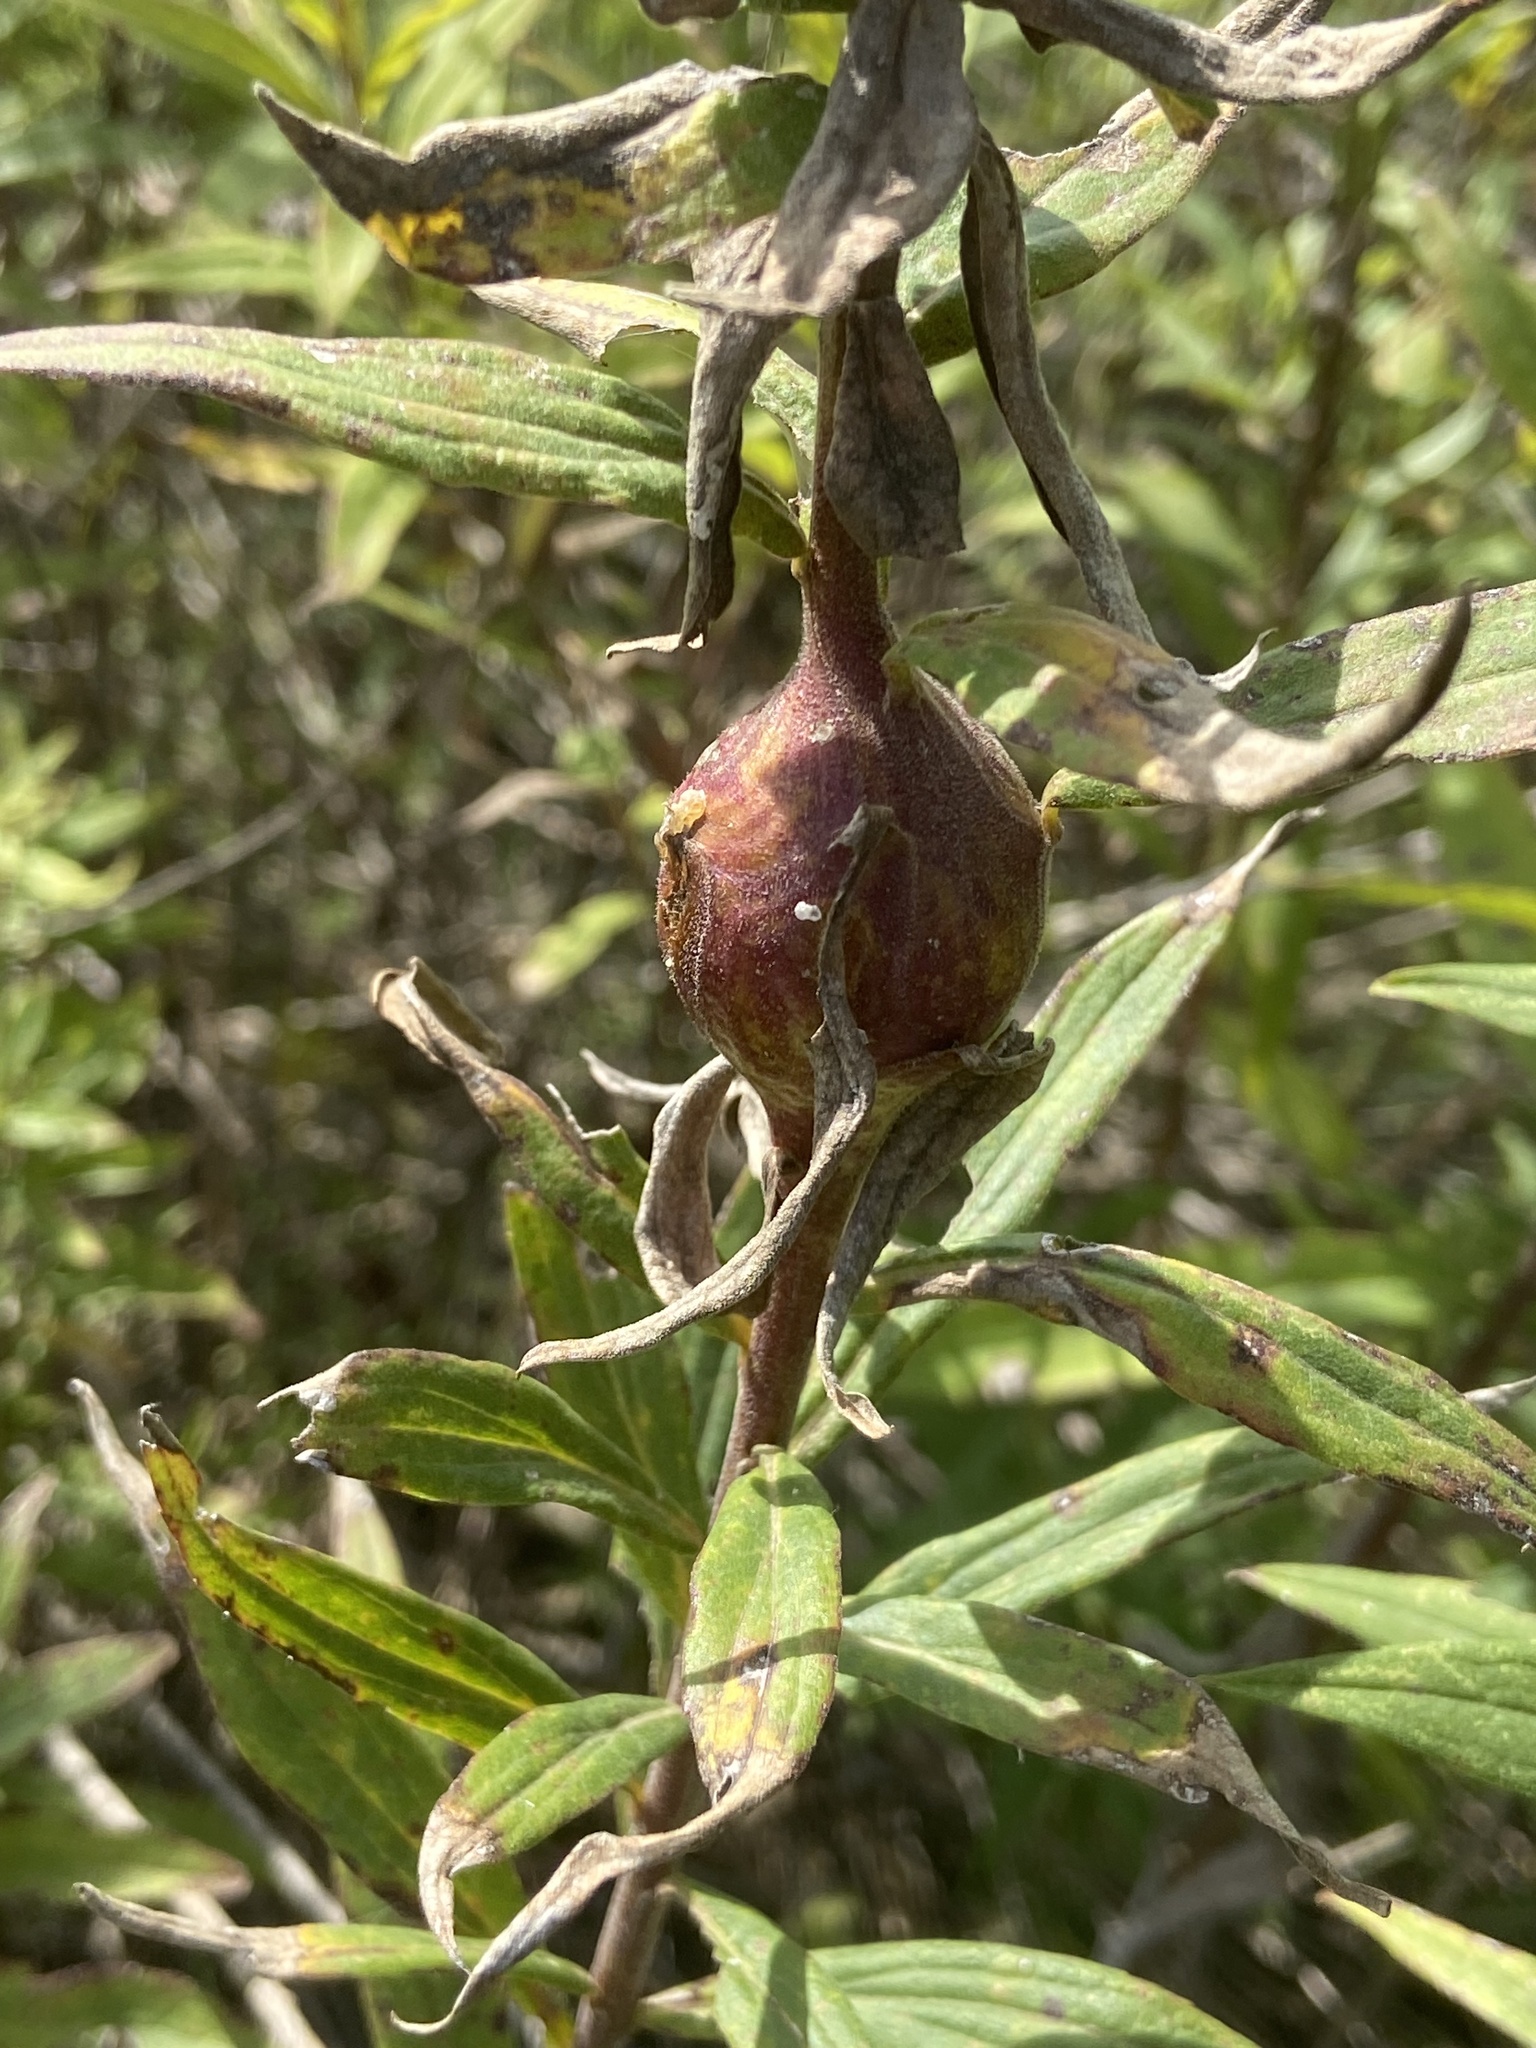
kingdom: Animalia
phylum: Arthropoda
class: Insecta
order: Diptera
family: Tephritidae
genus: Eurosta
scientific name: Eurosta solidaginis
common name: Goldenrod gall fly
